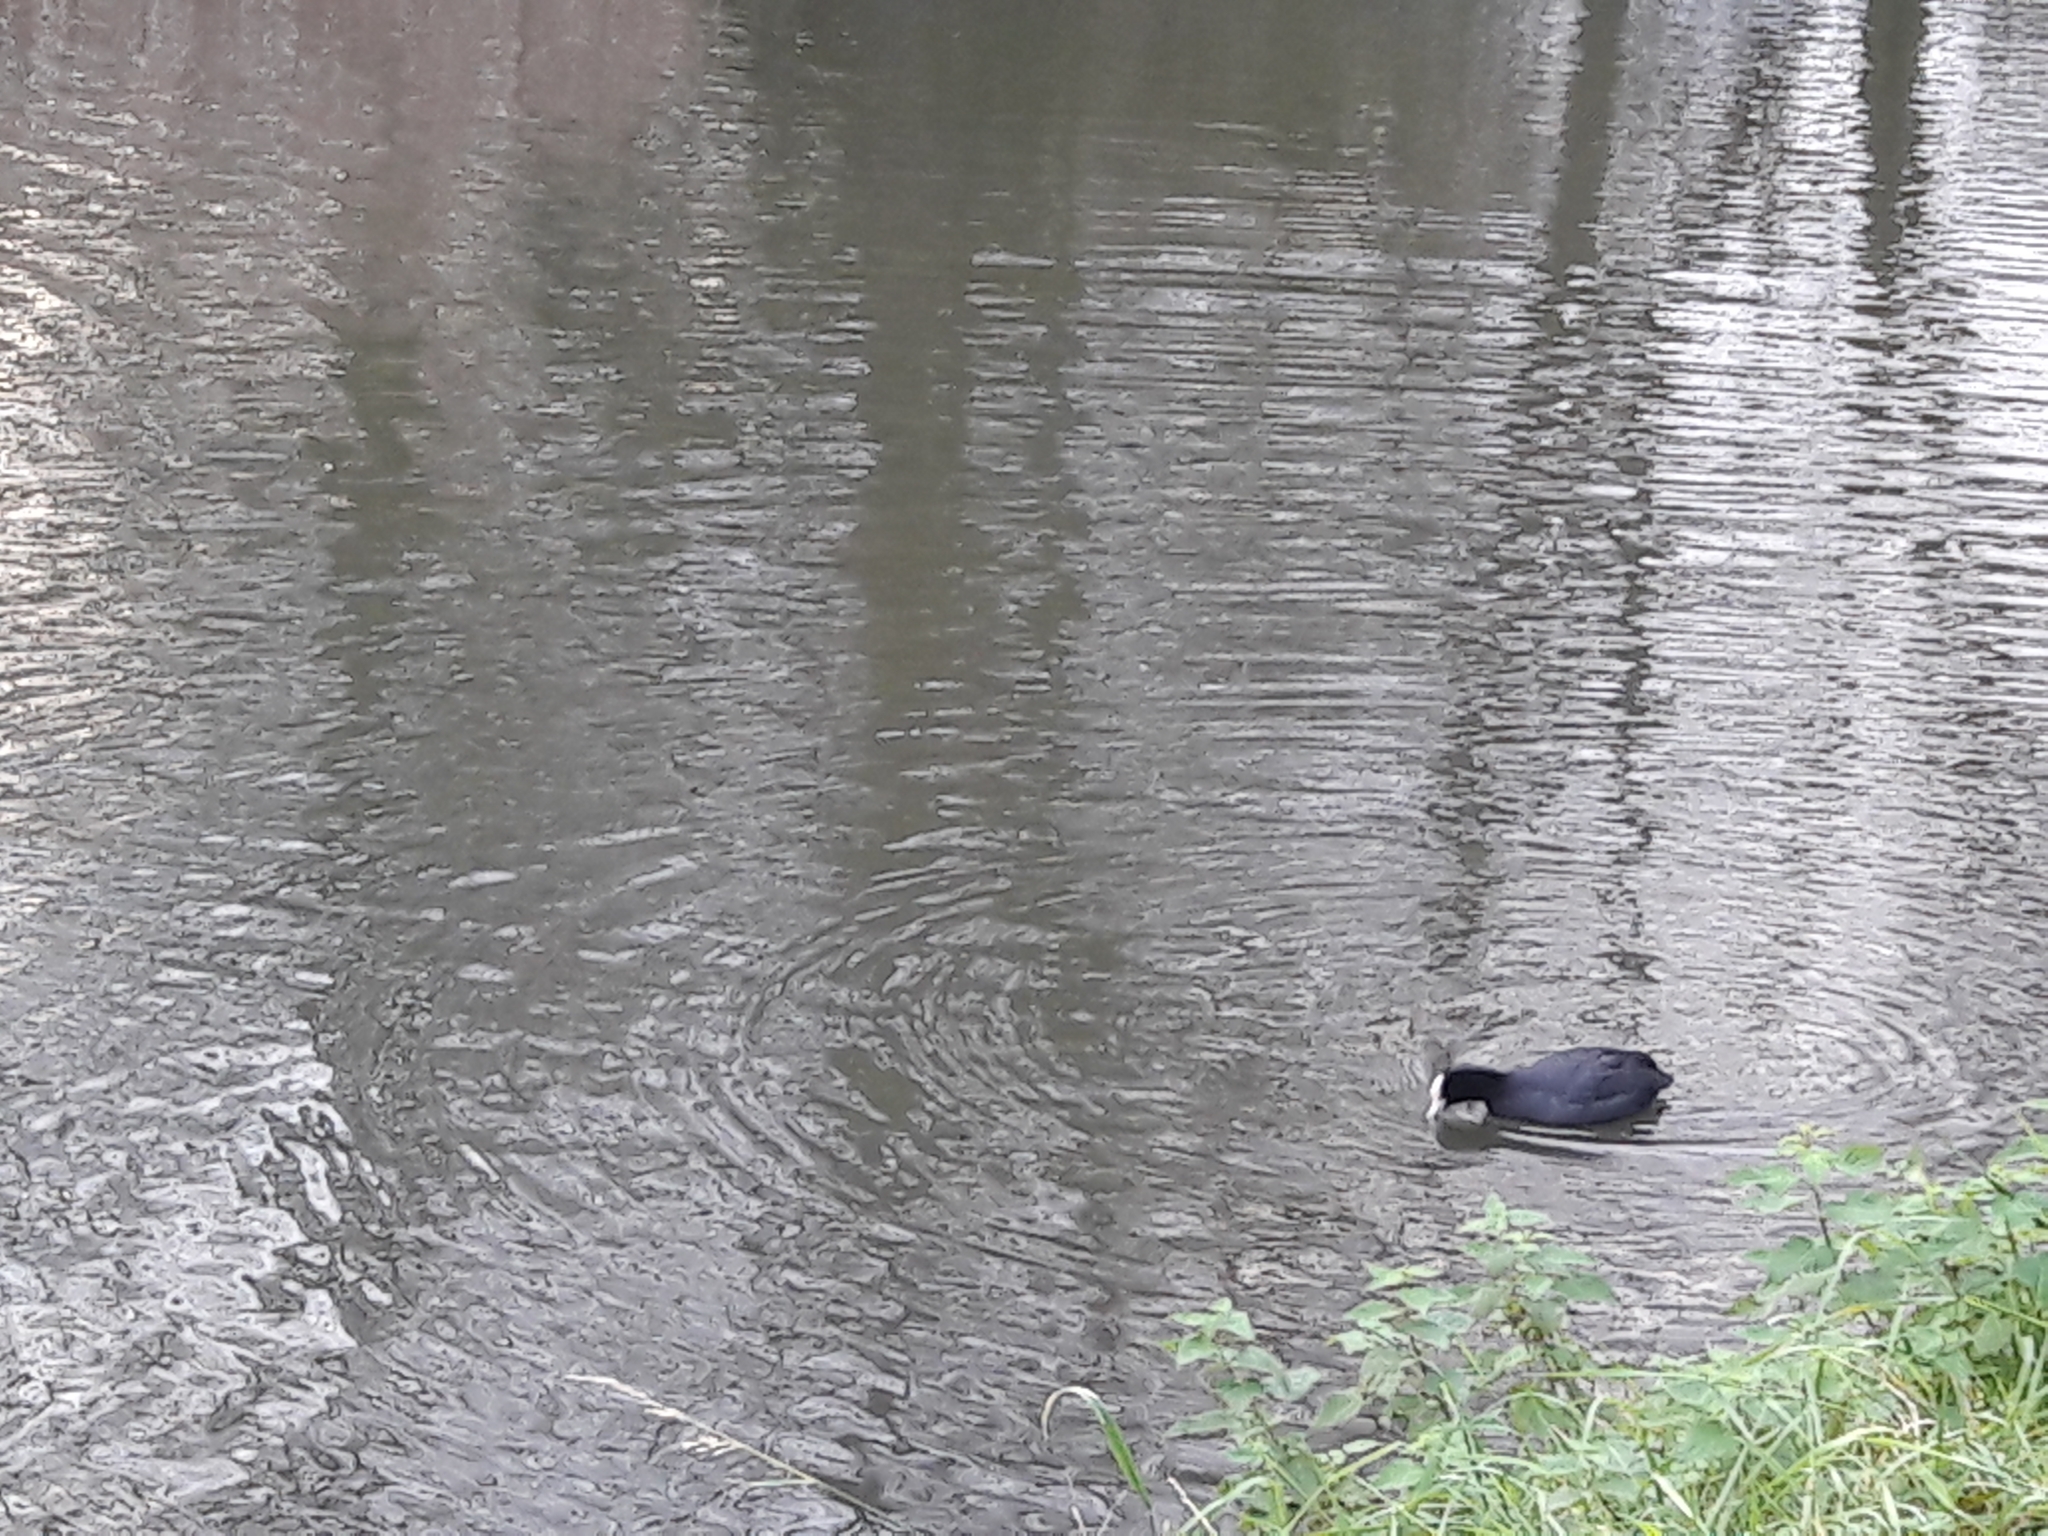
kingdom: Animalia
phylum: Chordata
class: Aves
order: Gruiformes
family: Rallidae
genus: Fulica
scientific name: Fulica atra
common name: Eurasian coot
